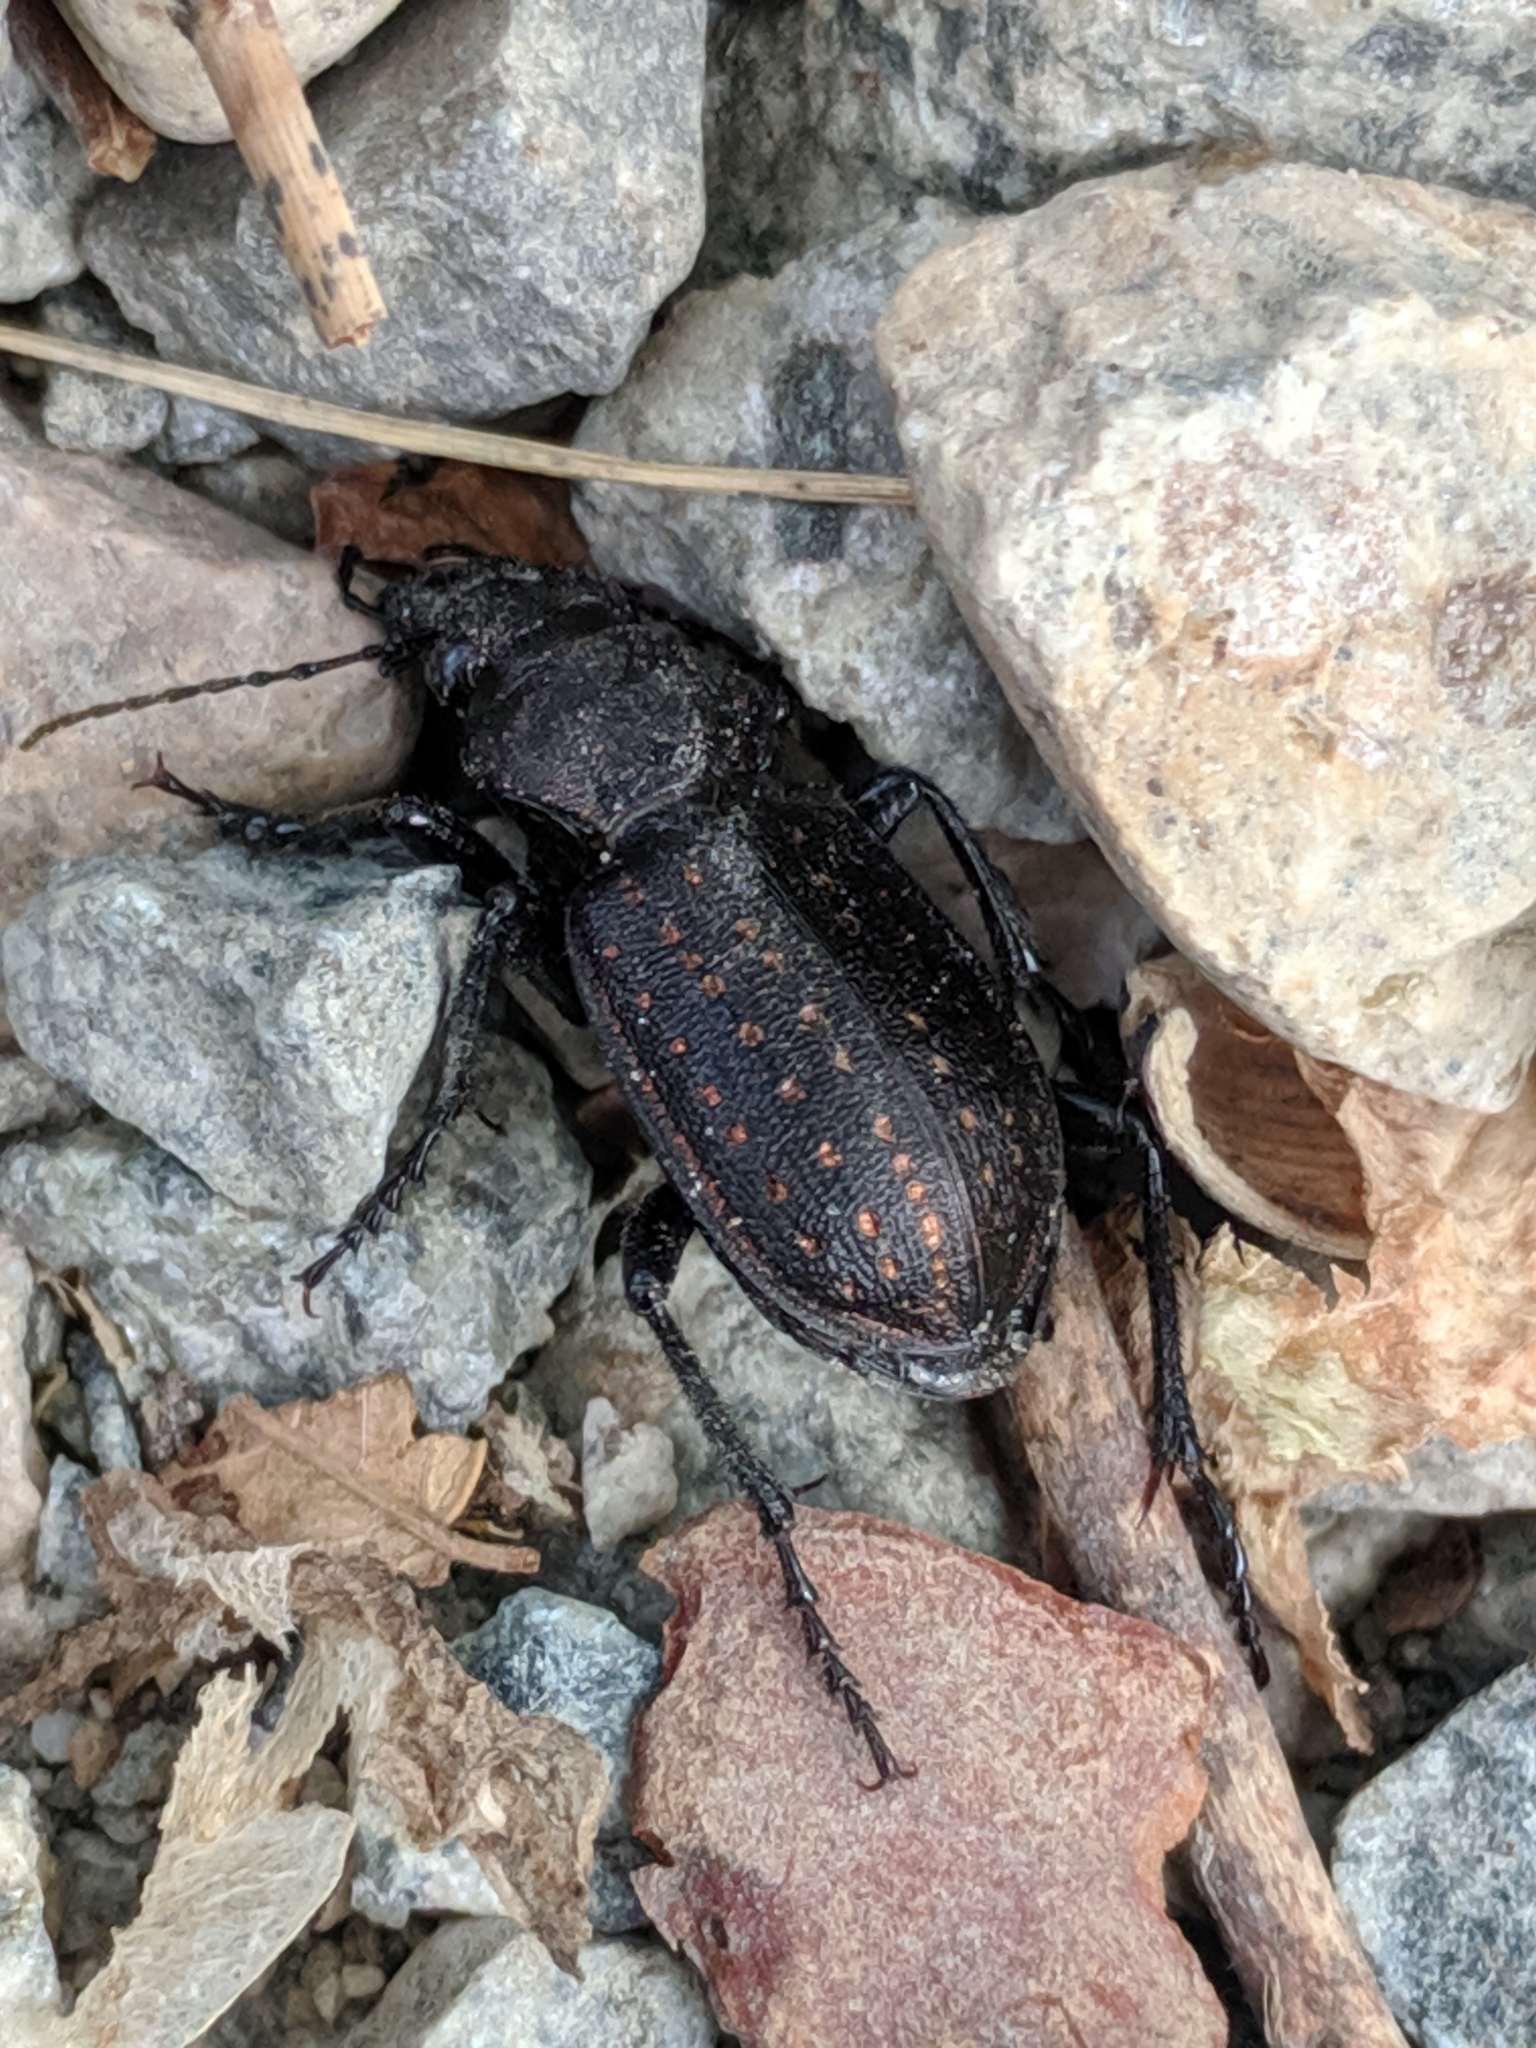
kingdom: Animalia
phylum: Arthropoda
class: Insecta
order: Coleoptera
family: Carabidae
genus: Calosoma
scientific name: Calosoma tepidum
